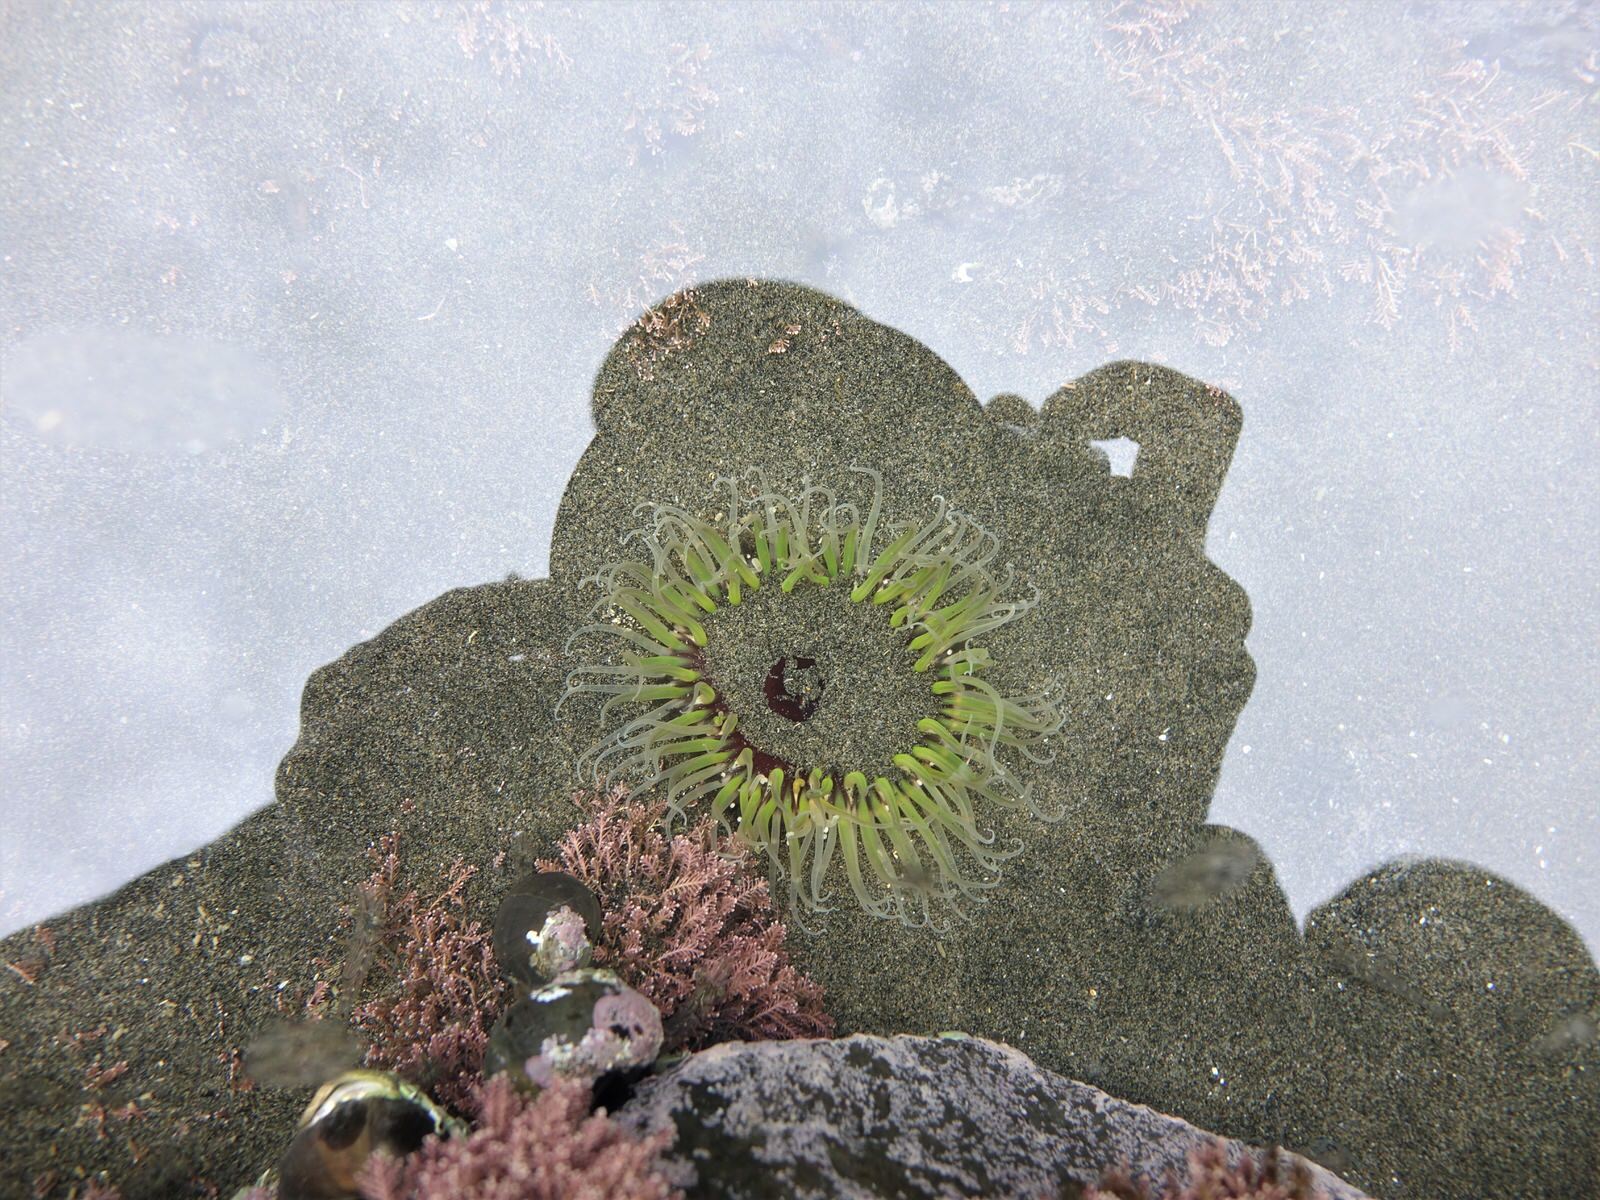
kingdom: Animalia
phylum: Cnidaria
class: Anthozoa
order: Actiniaria
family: Actiniidae
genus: Oulactis
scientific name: Oulactis magna
